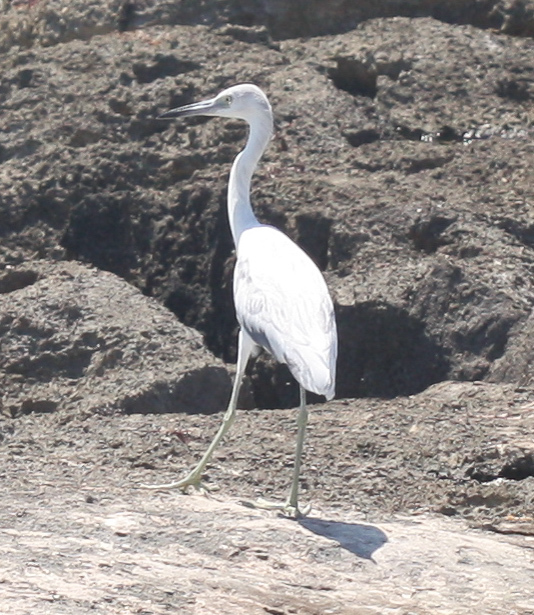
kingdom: Animalia
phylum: Chordata
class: Aves
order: Pelecaniformes
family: Ardeidae
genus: Egretta
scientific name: Egretta caerulea
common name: Little blue heron
